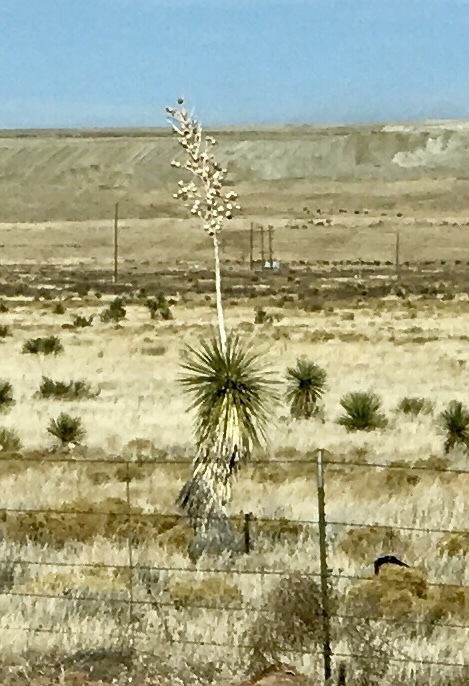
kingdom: Plantae
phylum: Tracheophyta
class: Liliopsida
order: Asparagales
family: Asparagaceae
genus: Yucca
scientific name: Yucca elata
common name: Palmella
